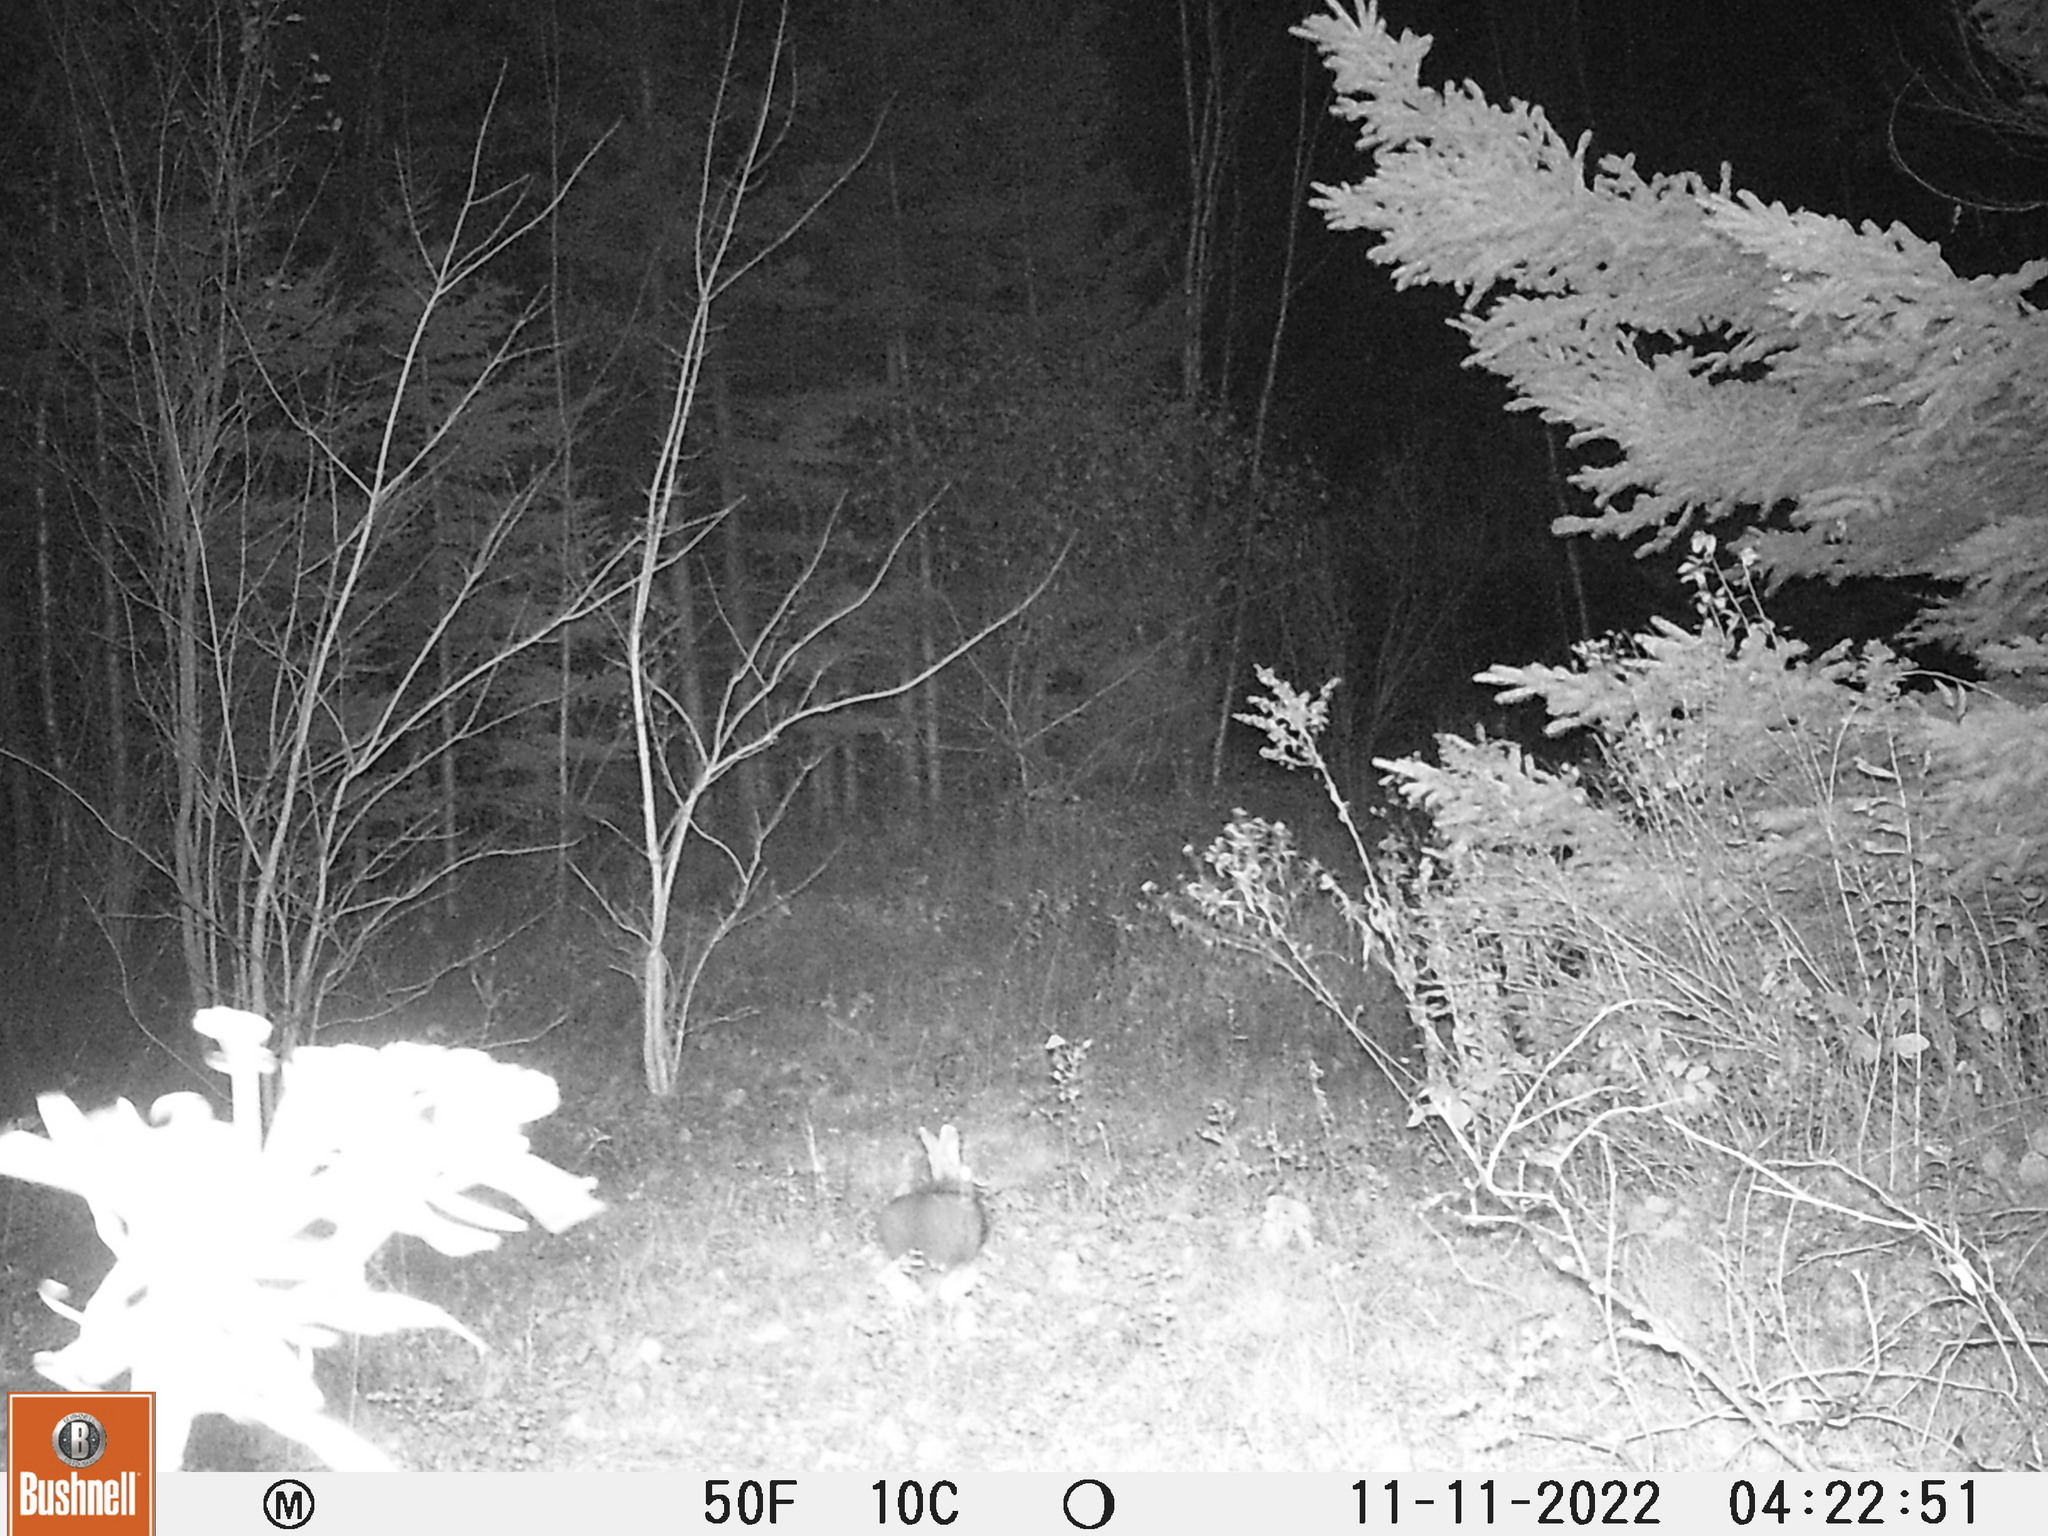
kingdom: Animalia
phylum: Chordata
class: Mammalia
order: Lagomorpha
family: Leporidae
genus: Lepus
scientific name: Lepus americanus
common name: Snowshoe hare
